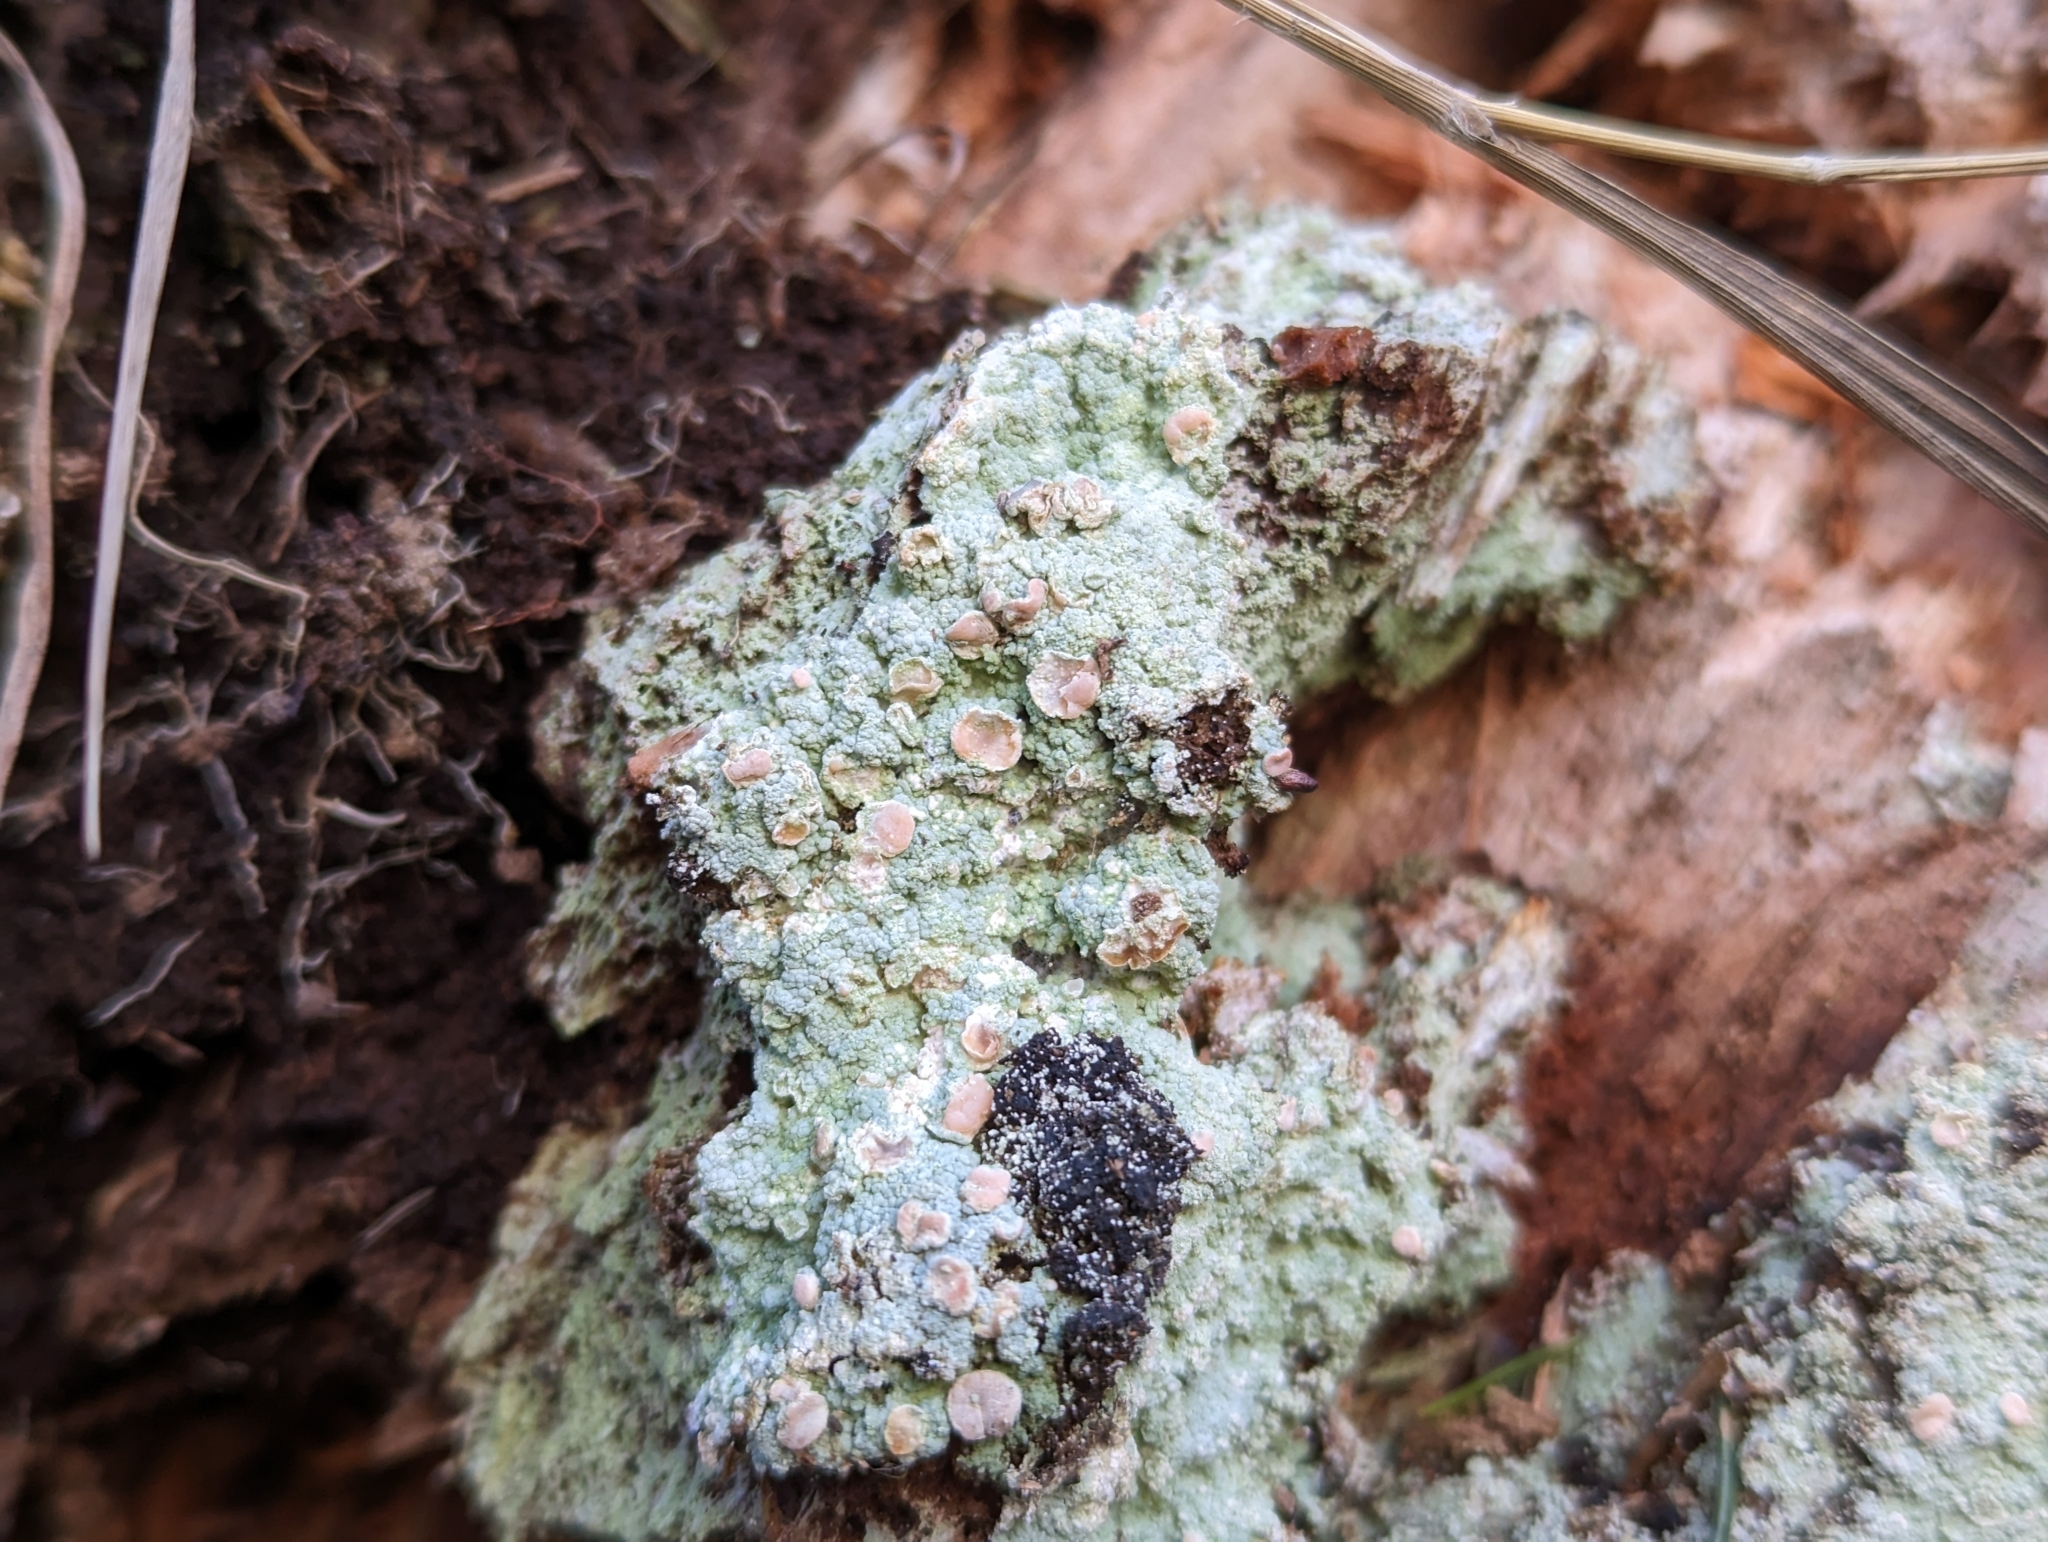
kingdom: Fungi
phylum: Ascomycota
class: Lecanoromycetes
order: Pertusariales
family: Icmadophilaceae
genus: Icmadophila
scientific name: Icmadophila ericetorum
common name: Candy lichen
